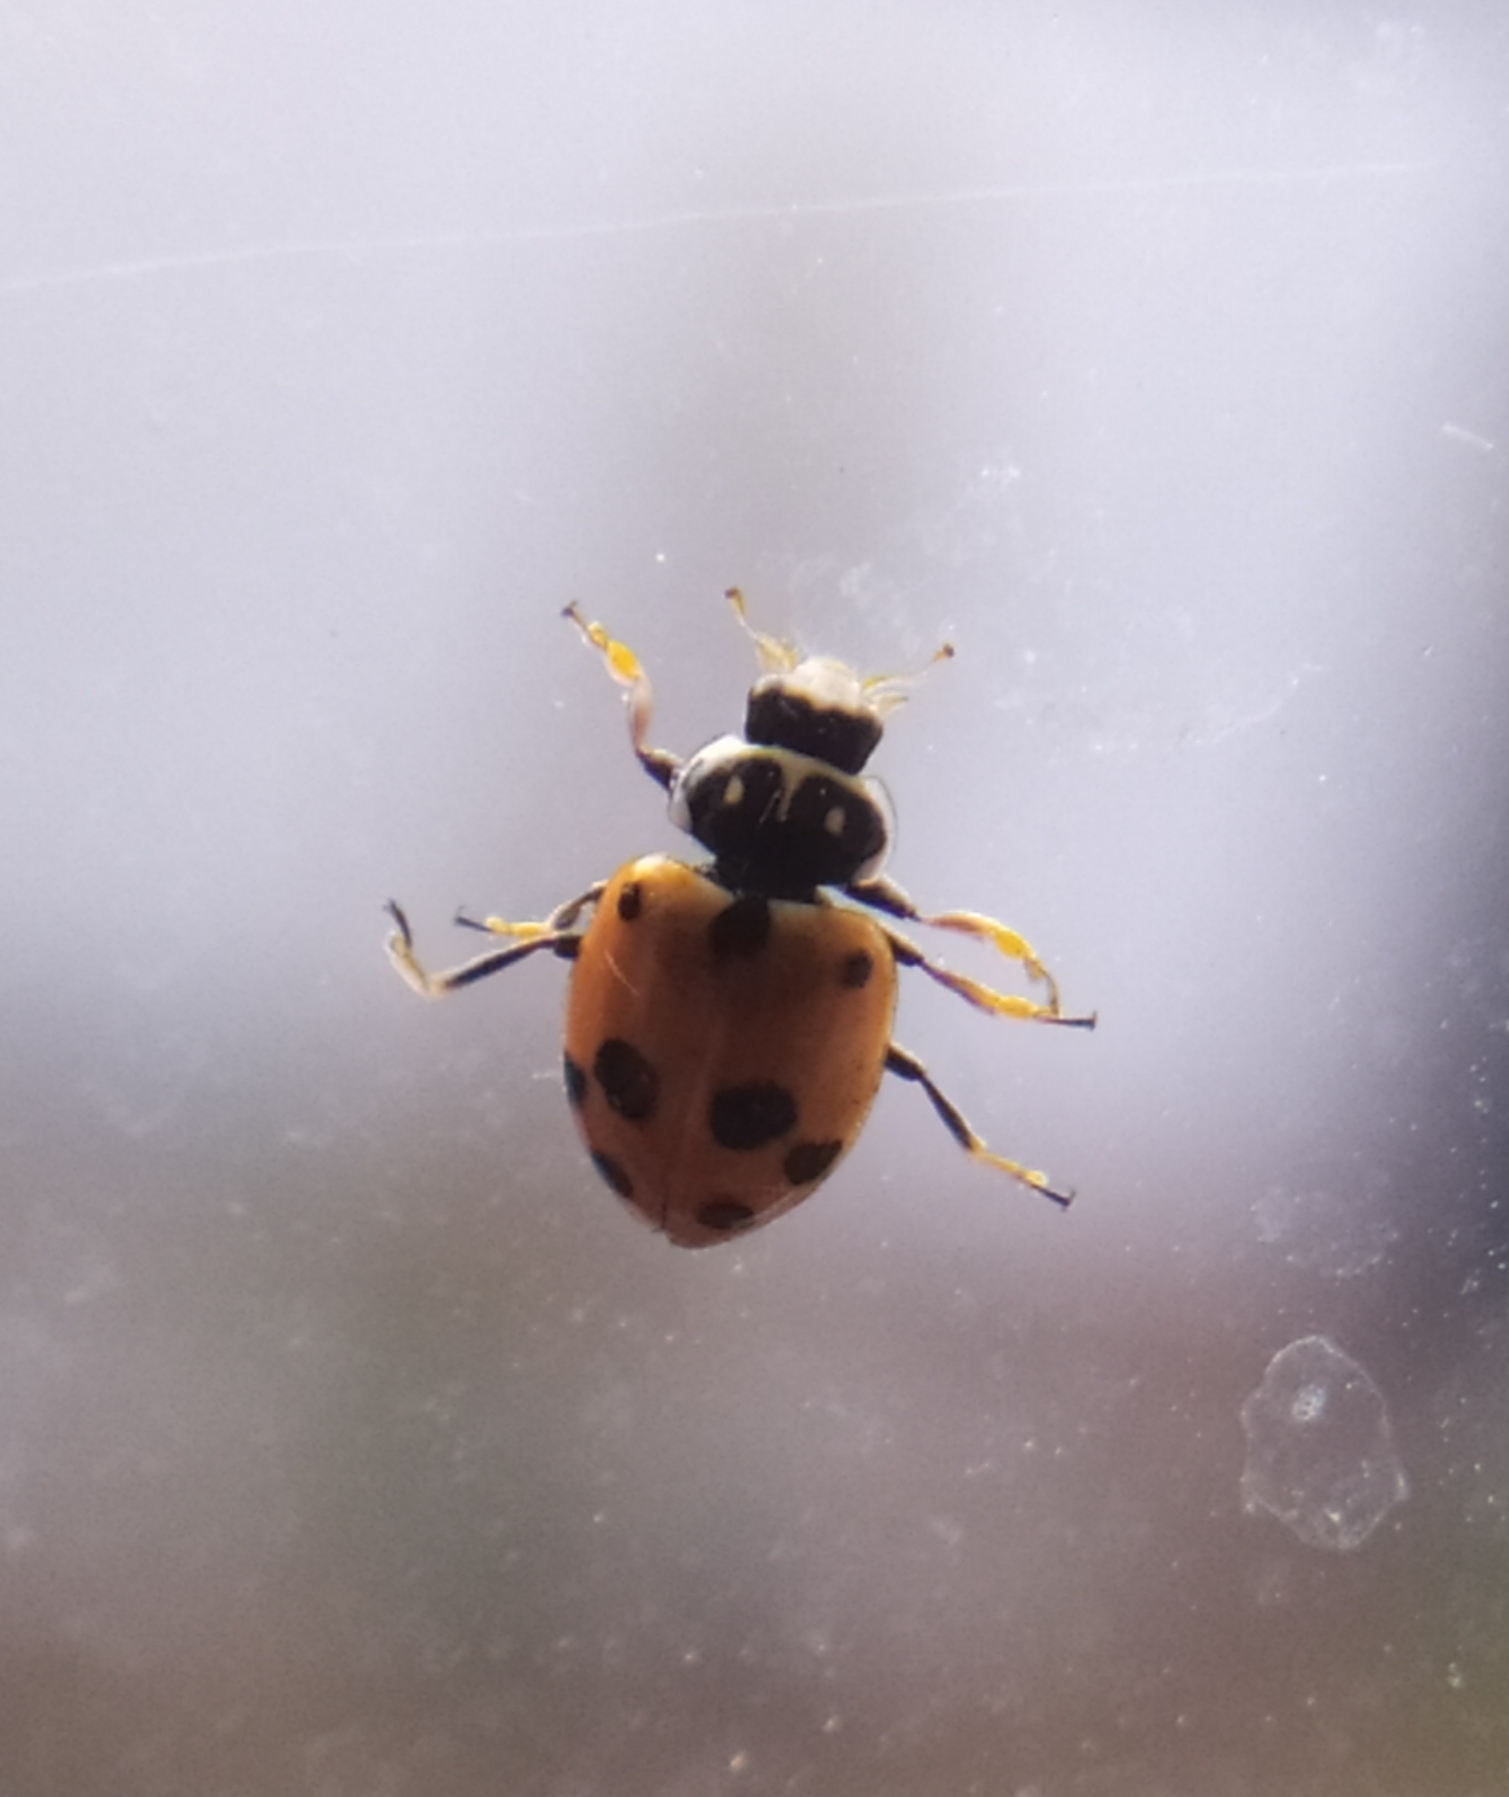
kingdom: Animalia
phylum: Arthropoda
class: Insecta
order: Coleoptera
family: Coccinellidae
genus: Hippodamia
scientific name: Hippodamia variegata
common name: Ladybird beetle
